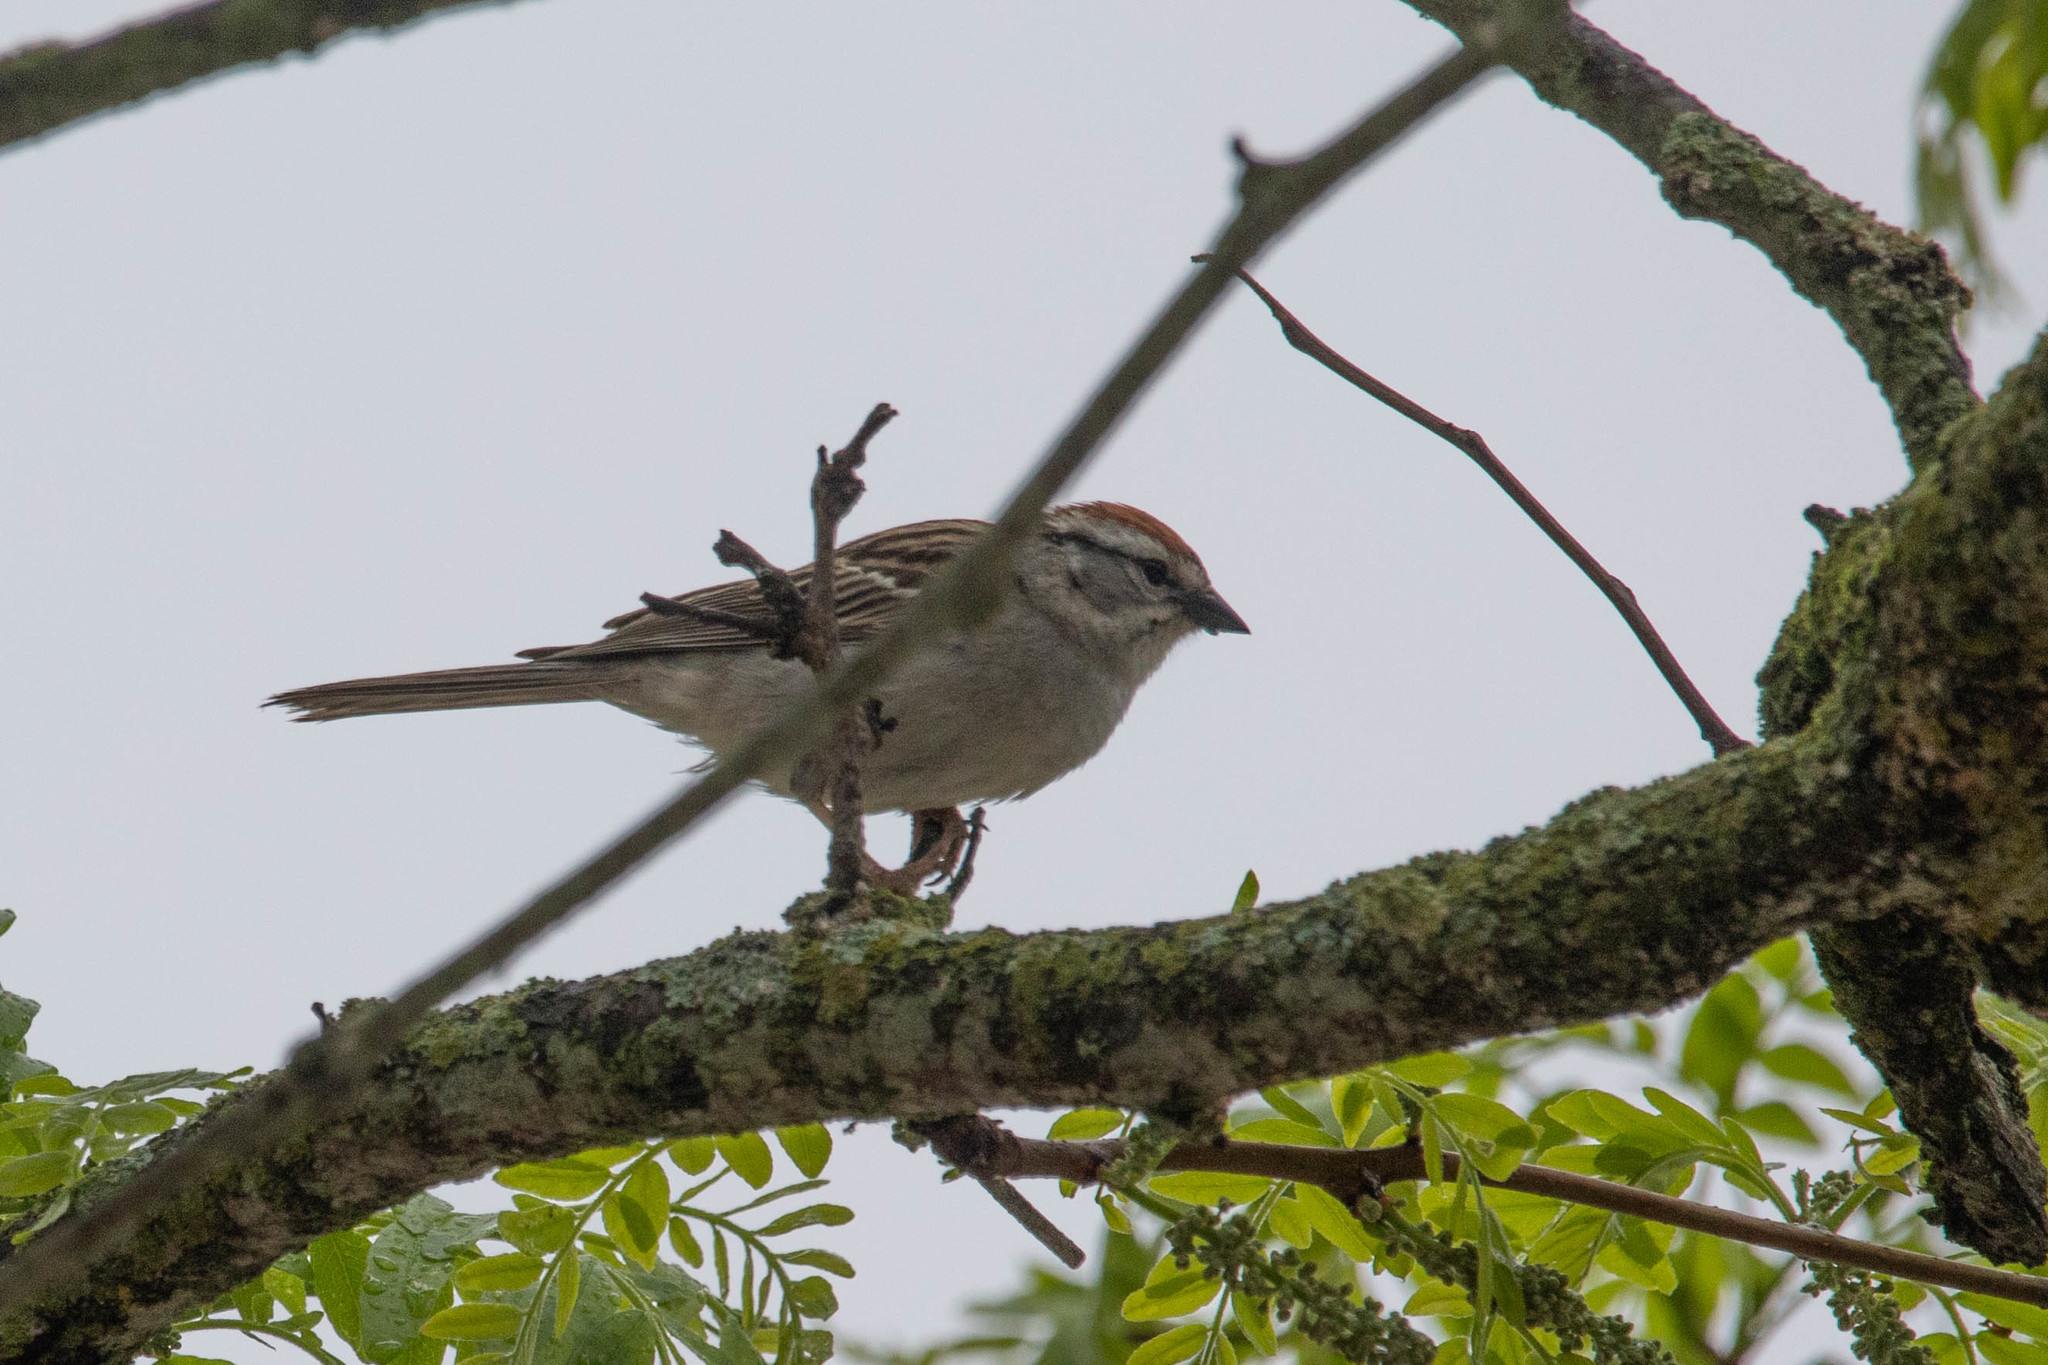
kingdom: Animalia
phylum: Chordata
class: Aves
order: Passeriformes
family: Passerellidae
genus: Spizella
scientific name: Spizella passerina
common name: Chipping sparrow
